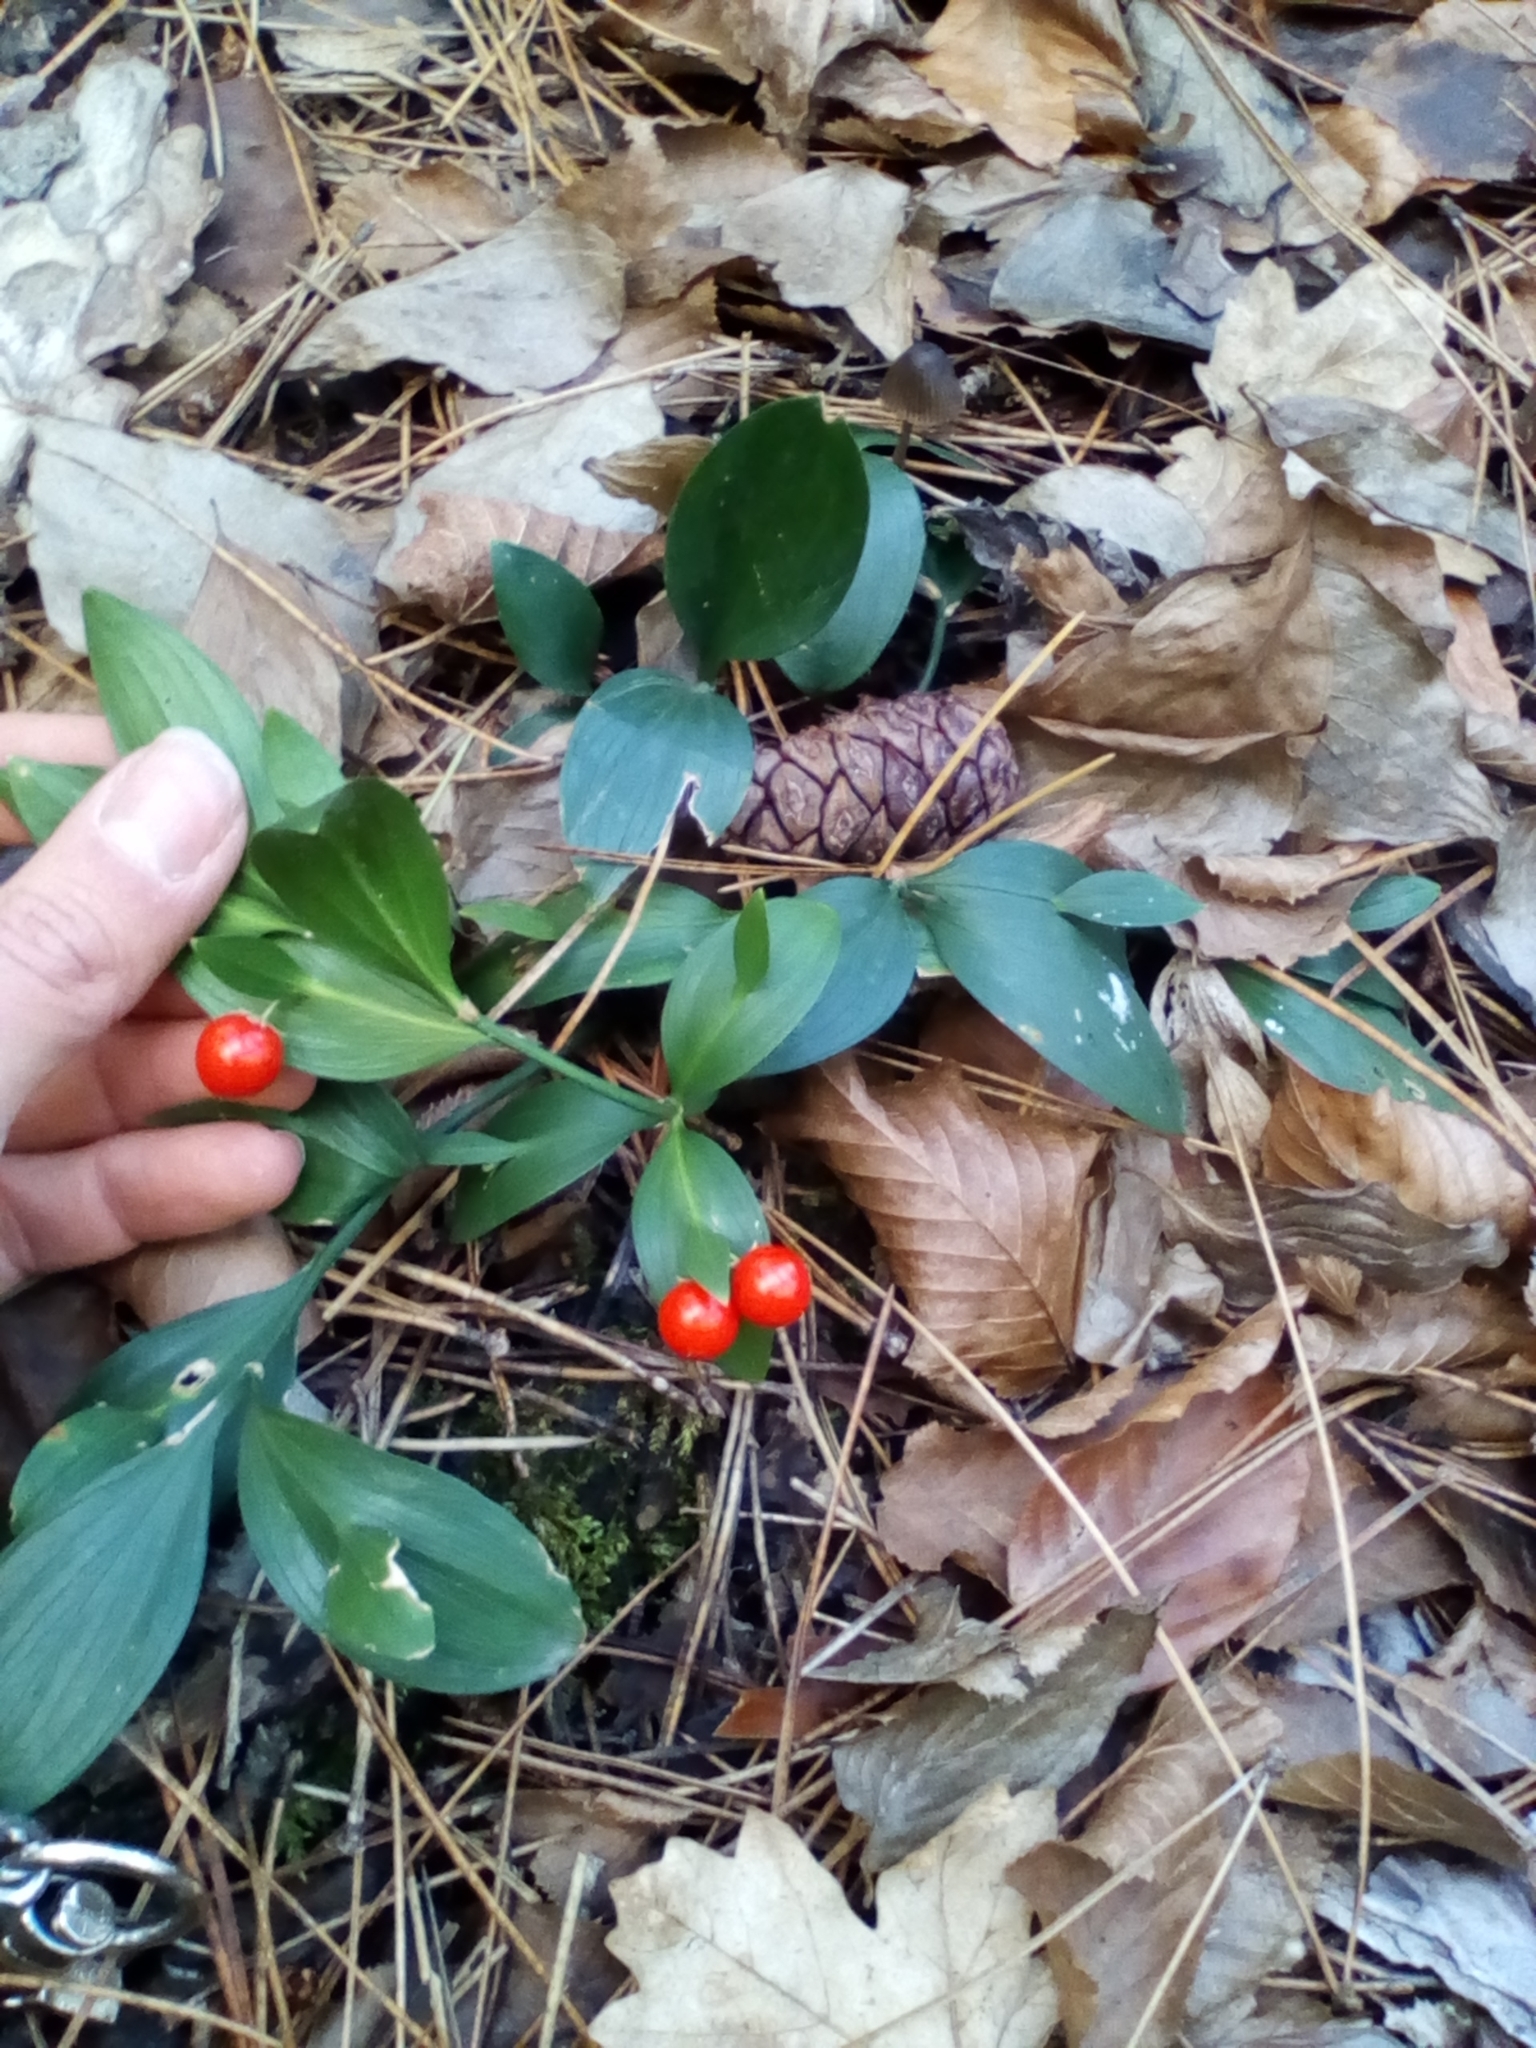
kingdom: Plantae
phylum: Tracheophyta
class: Liliopsida
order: Asparagales
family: Asparagaceae
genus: Ruscus
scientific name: Ruscus hypoglossum
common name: Spineless butcher's-broom
